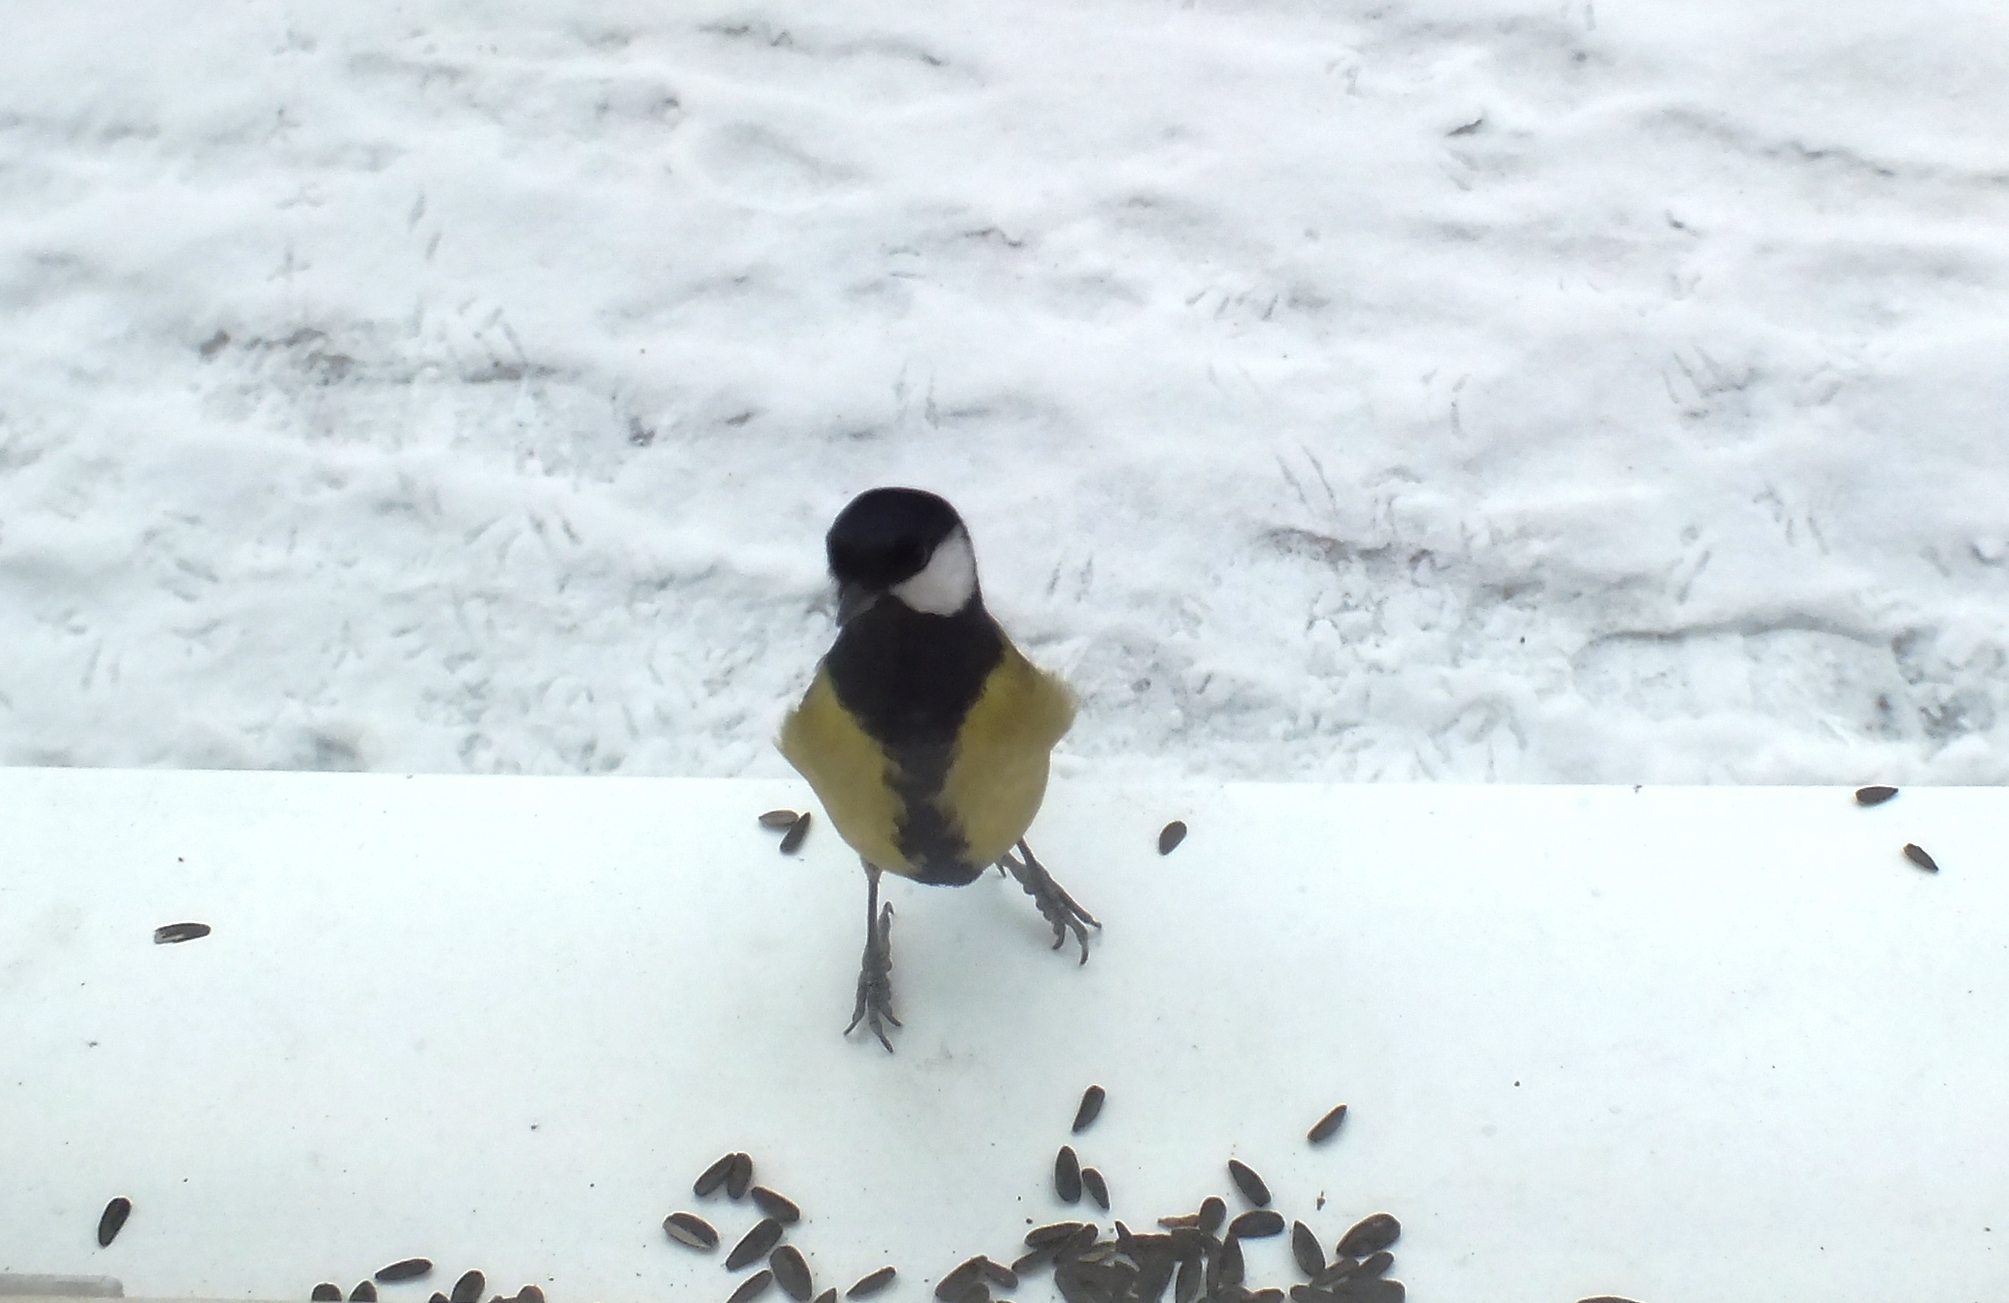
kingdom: Animalia
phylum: Chordata
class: Aves
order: Passeriformes
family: Paridae
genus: Parus
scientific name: Parus major
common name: Great tit
